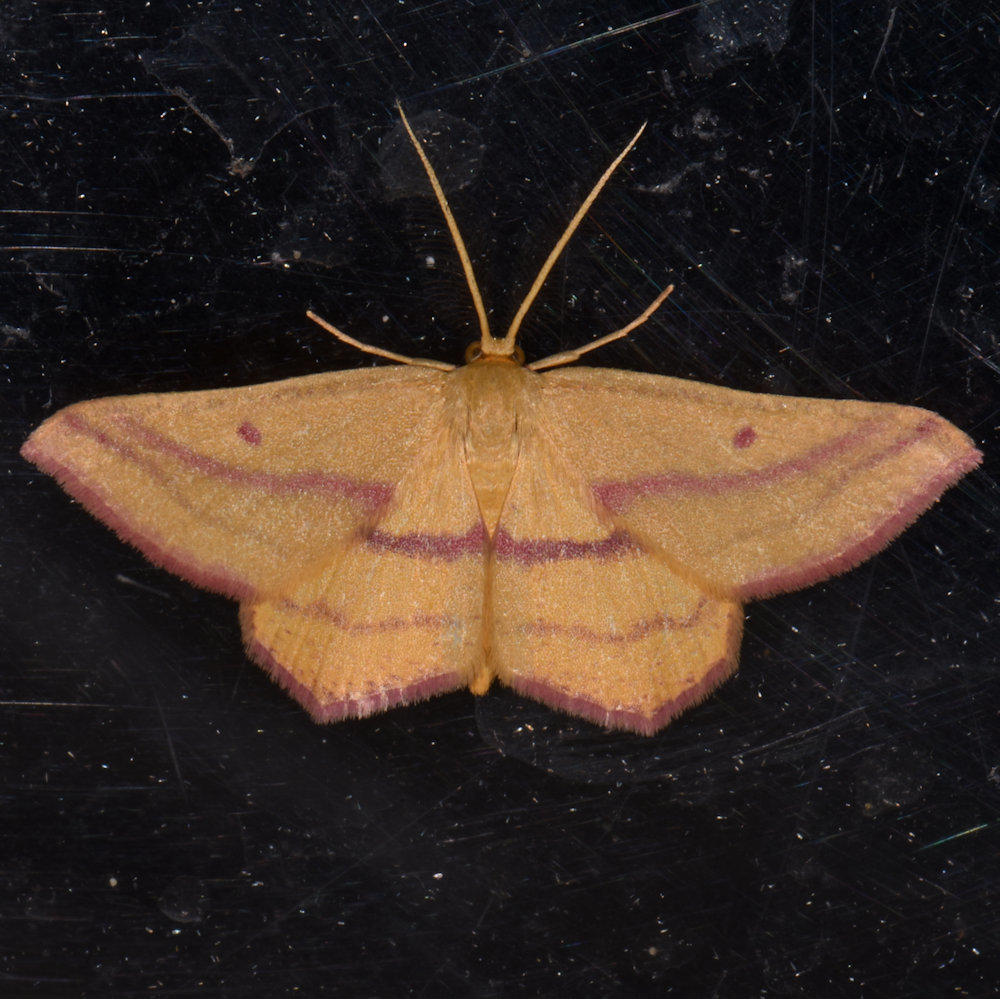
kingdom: Animalia
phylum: Arthropoda
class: Insecta
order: Lepidoptera
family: Geometridae
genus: Haematopis
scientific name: Haematopis grataria
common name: Chickweed geometer
